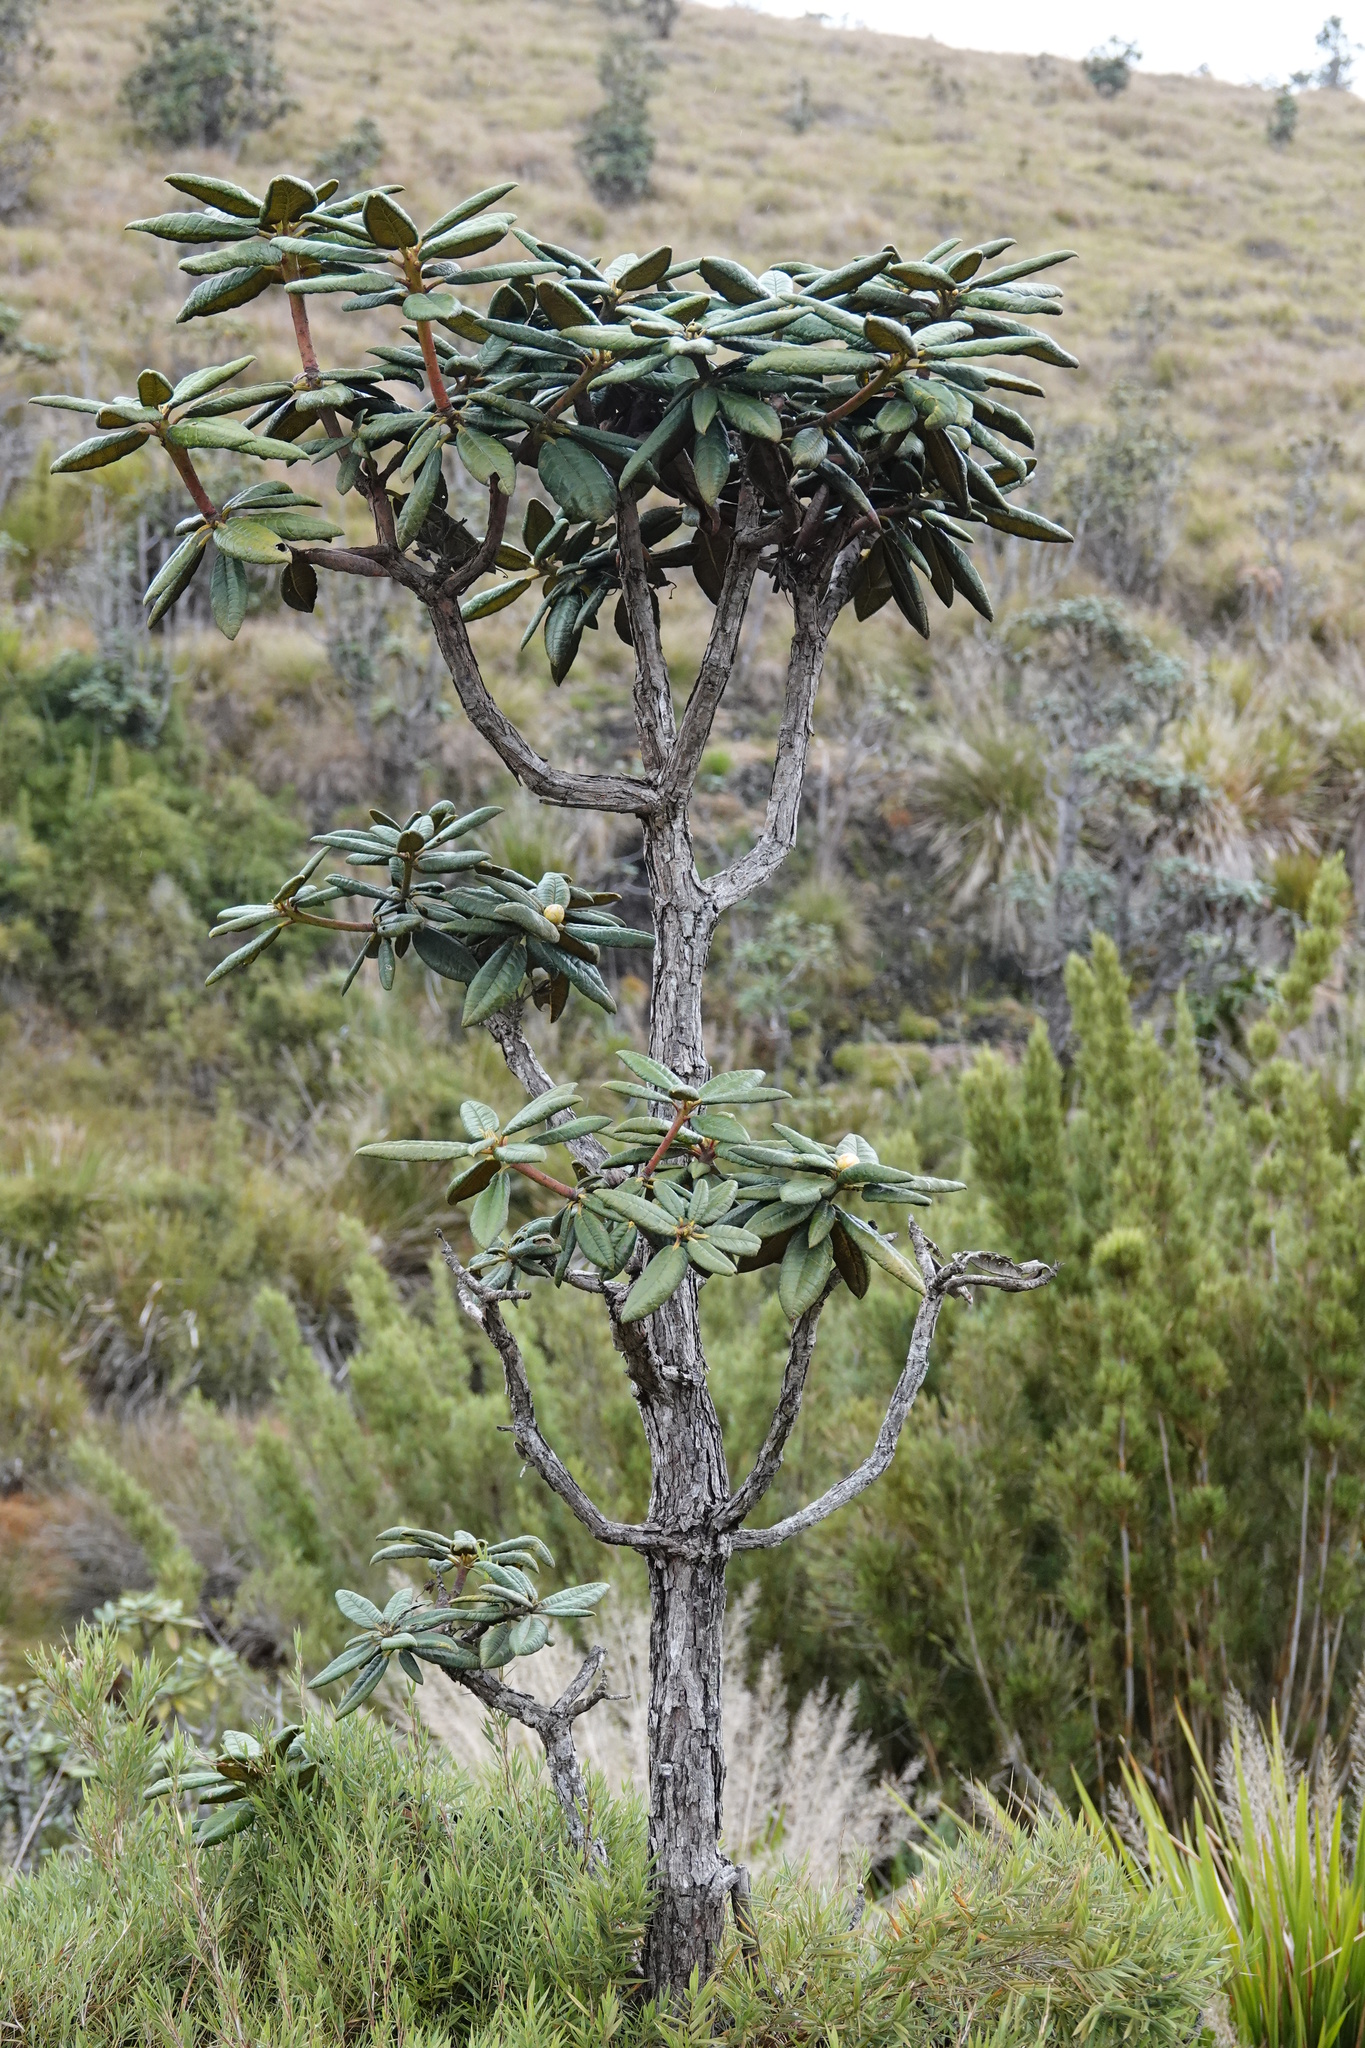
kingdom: Plantae
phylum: Tracheophyta
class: Magnoliopsida
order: Ericales
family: Ericaceae
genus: Rhododendron
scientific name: Rhododendron arboreum
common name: Tree rhododendron
